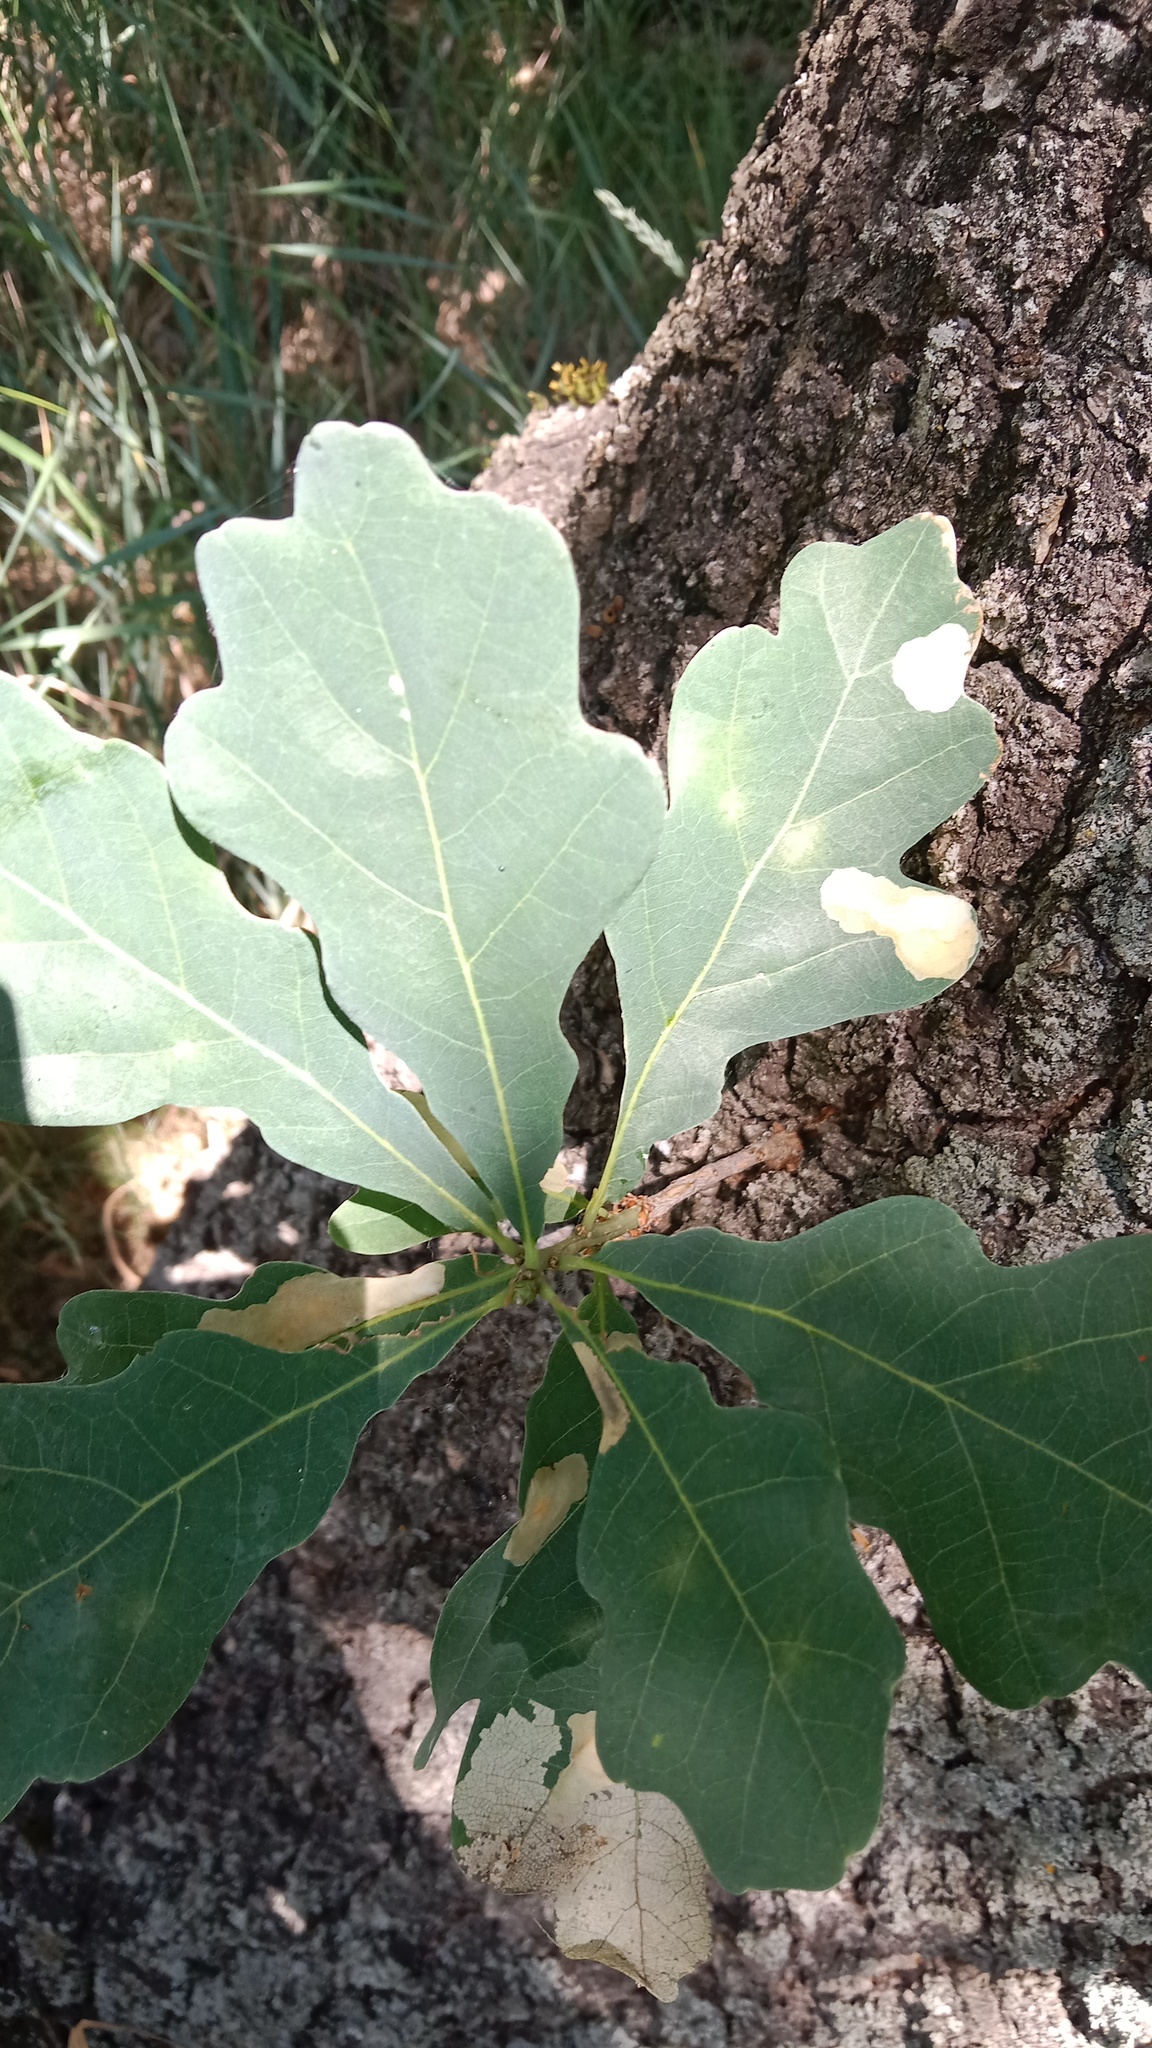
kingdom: Plantae
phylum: Tracheophyta
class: Magnoliopsida
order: Fagales
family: Fagaceae
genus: Quercus
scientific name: Quercus robur
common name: Pedunculate oak
